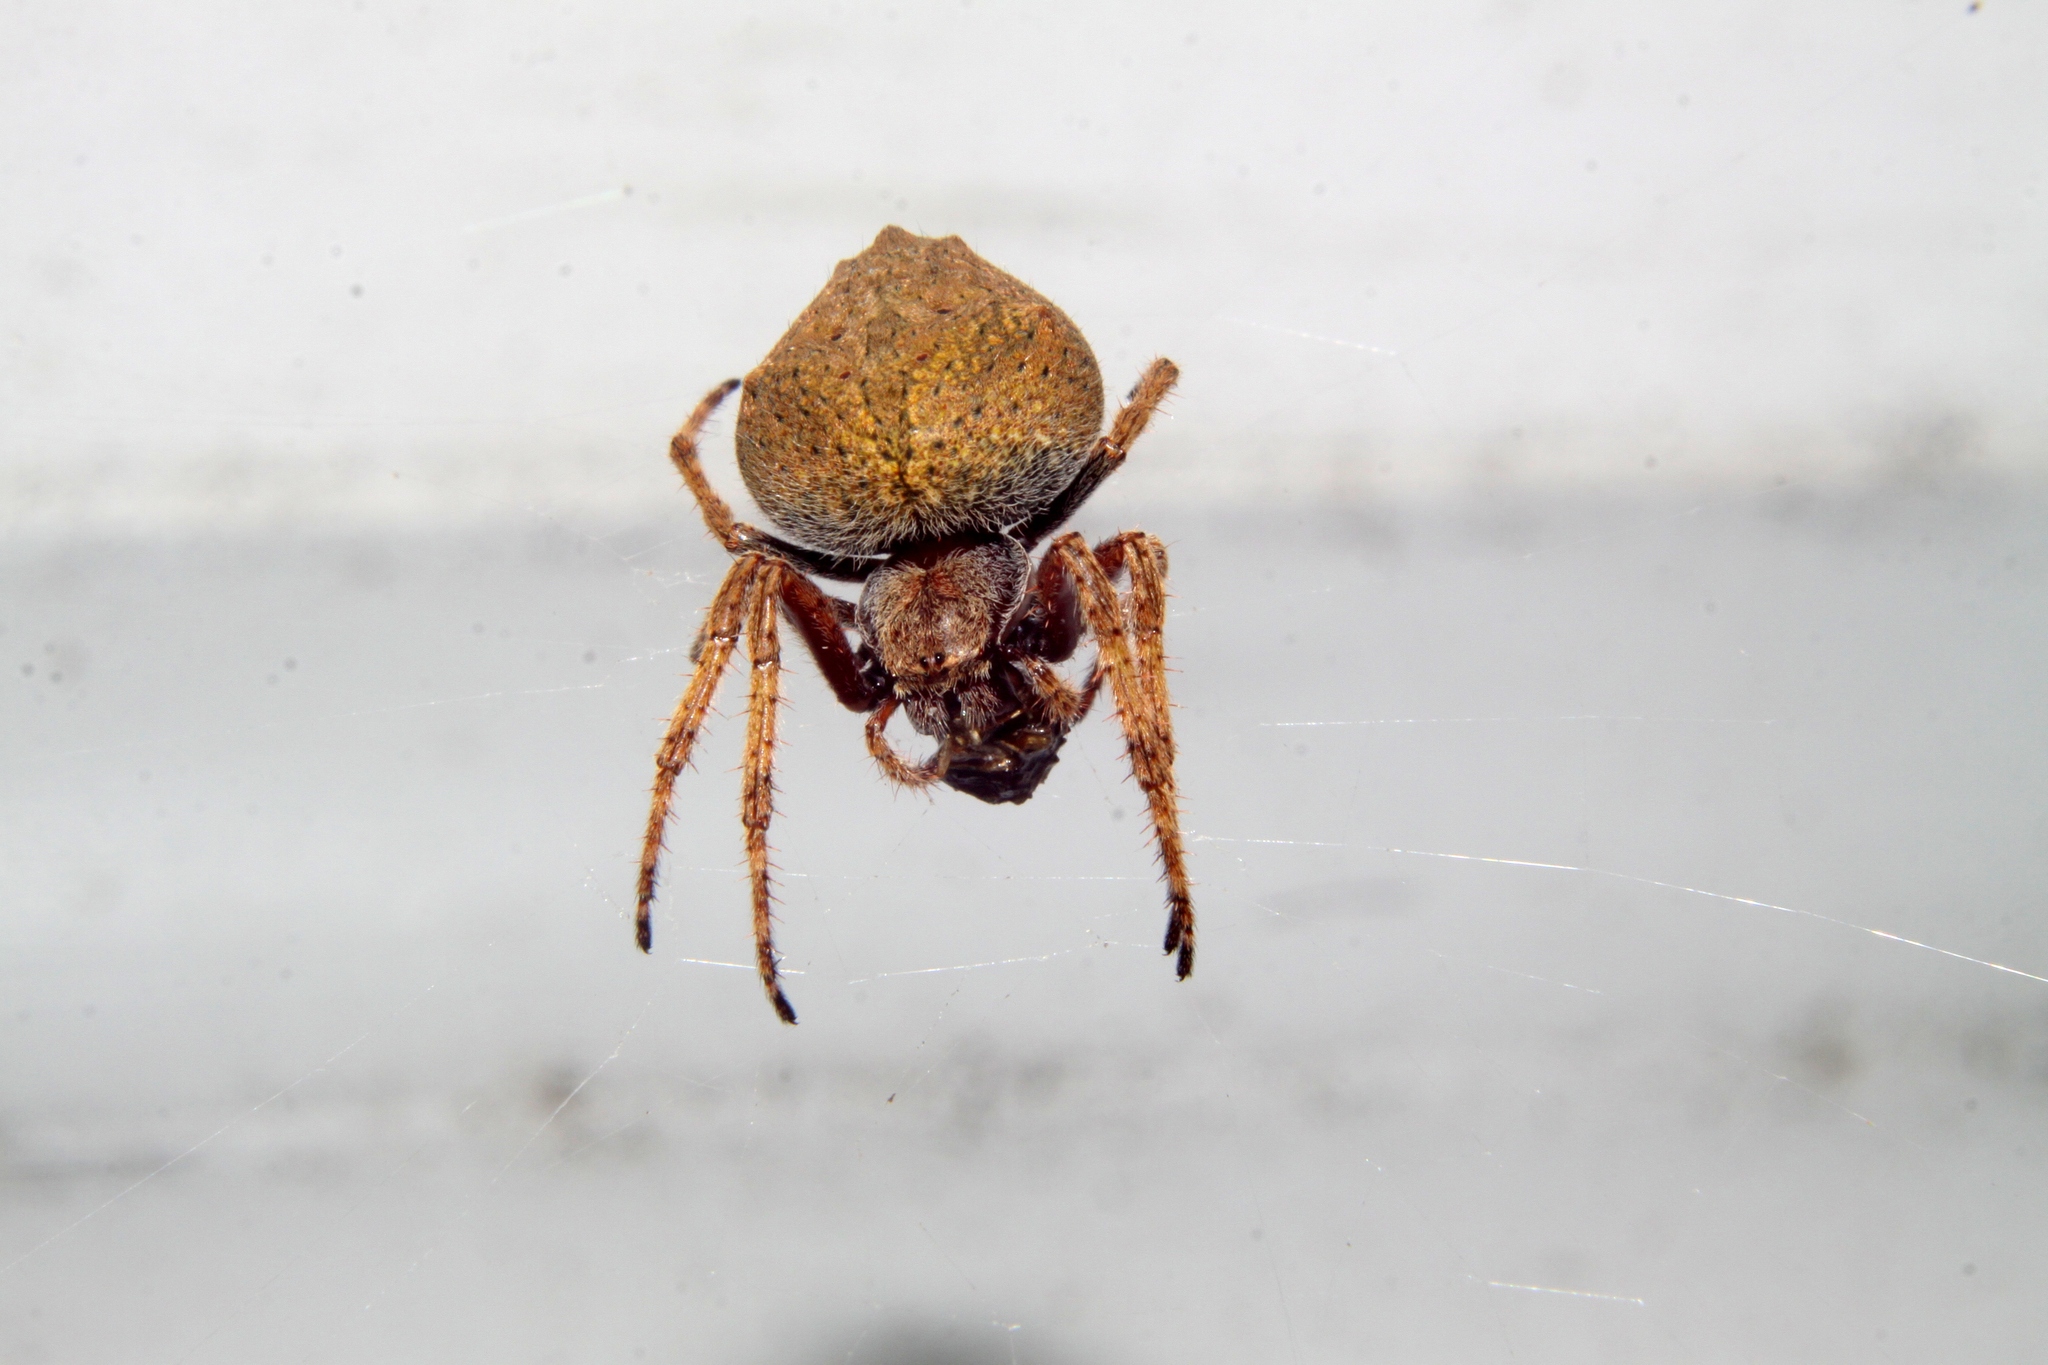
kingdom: Animalia
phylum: Arthropoda
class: Arachnida
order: Araneae
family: Araneidae
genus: Eriophora
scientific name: Eriophora pustulosa
